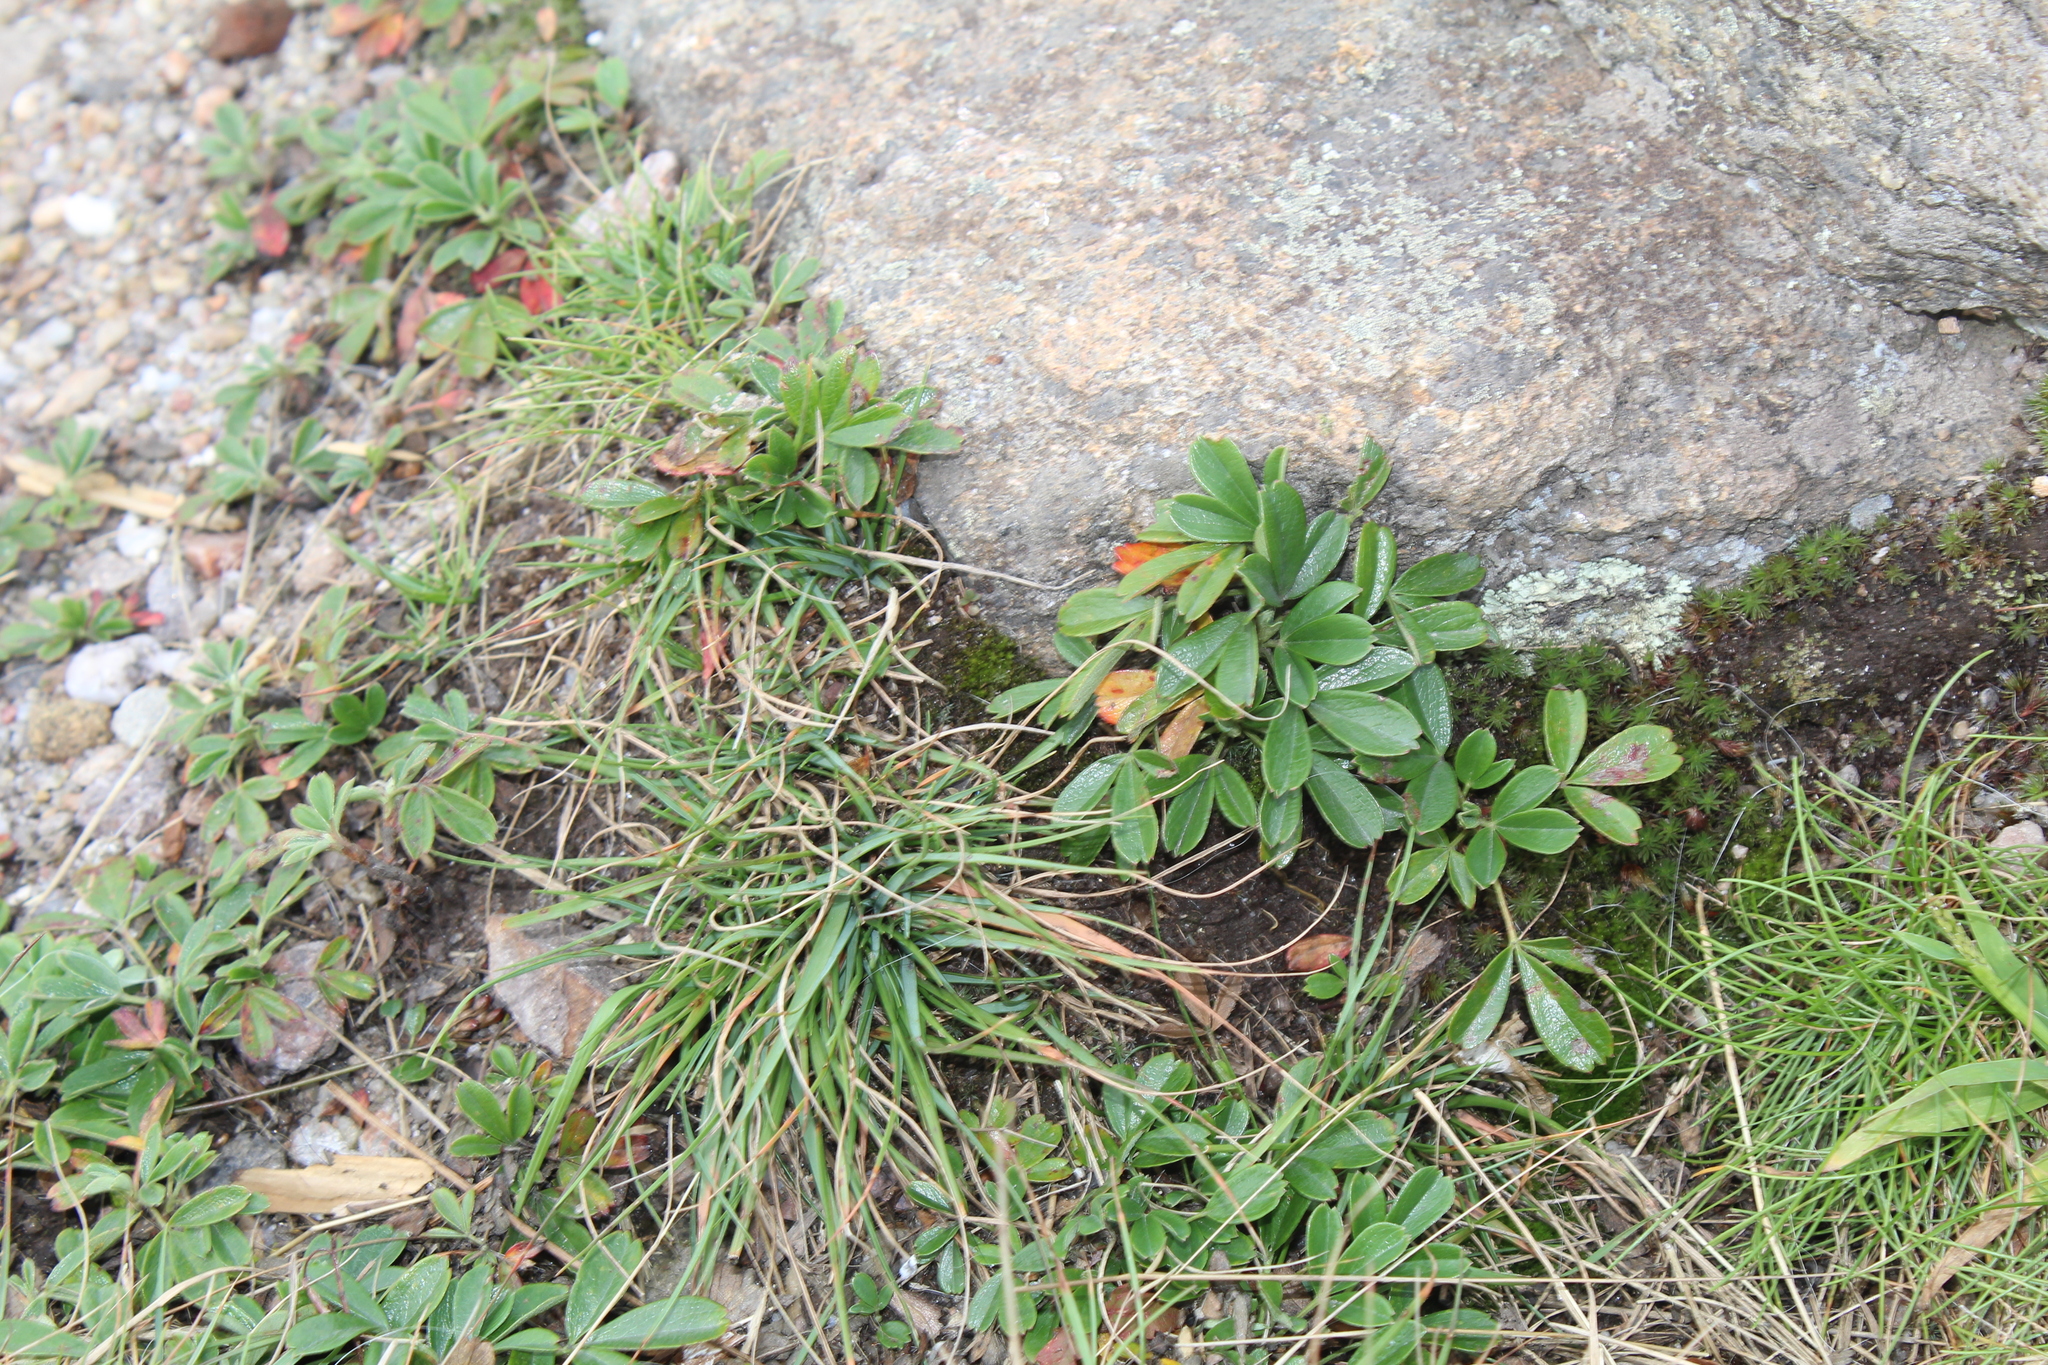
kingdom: Plantae
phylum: Tracheophyta
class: Magnoliopsida
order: Rosales
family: Rosaceae
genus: Sibbaldia
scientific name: Sibbaldia tridentata
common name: Three-toothed cinquefoil
